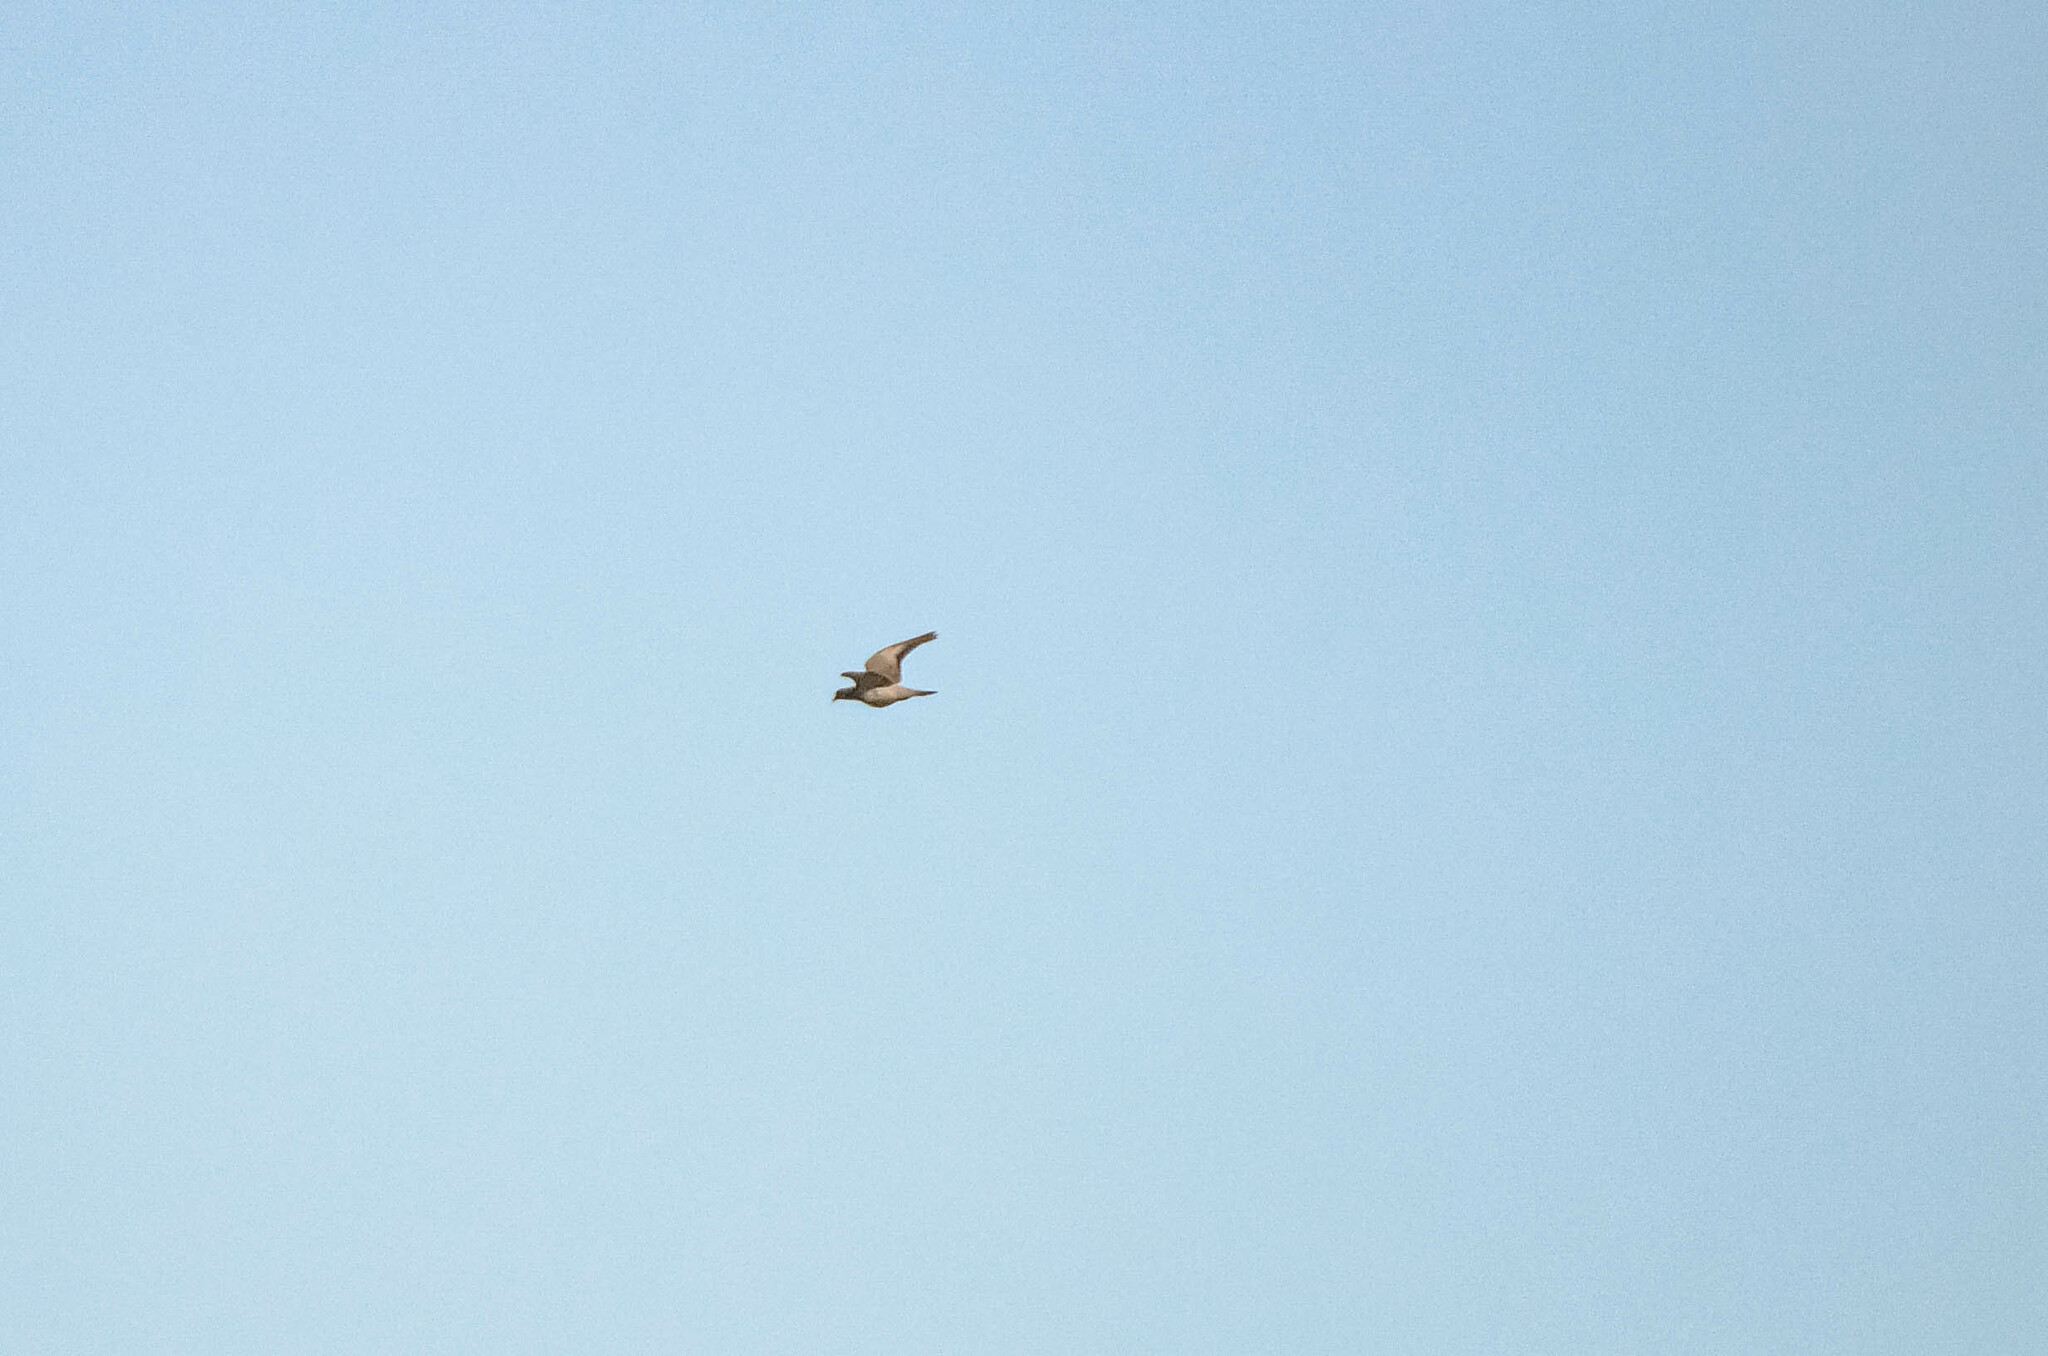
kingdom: Animalia
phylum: Chordata
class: Aves
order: Columbiformes
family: Columbidae
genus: Columba
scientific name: Columba oenas
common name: Stock dove
